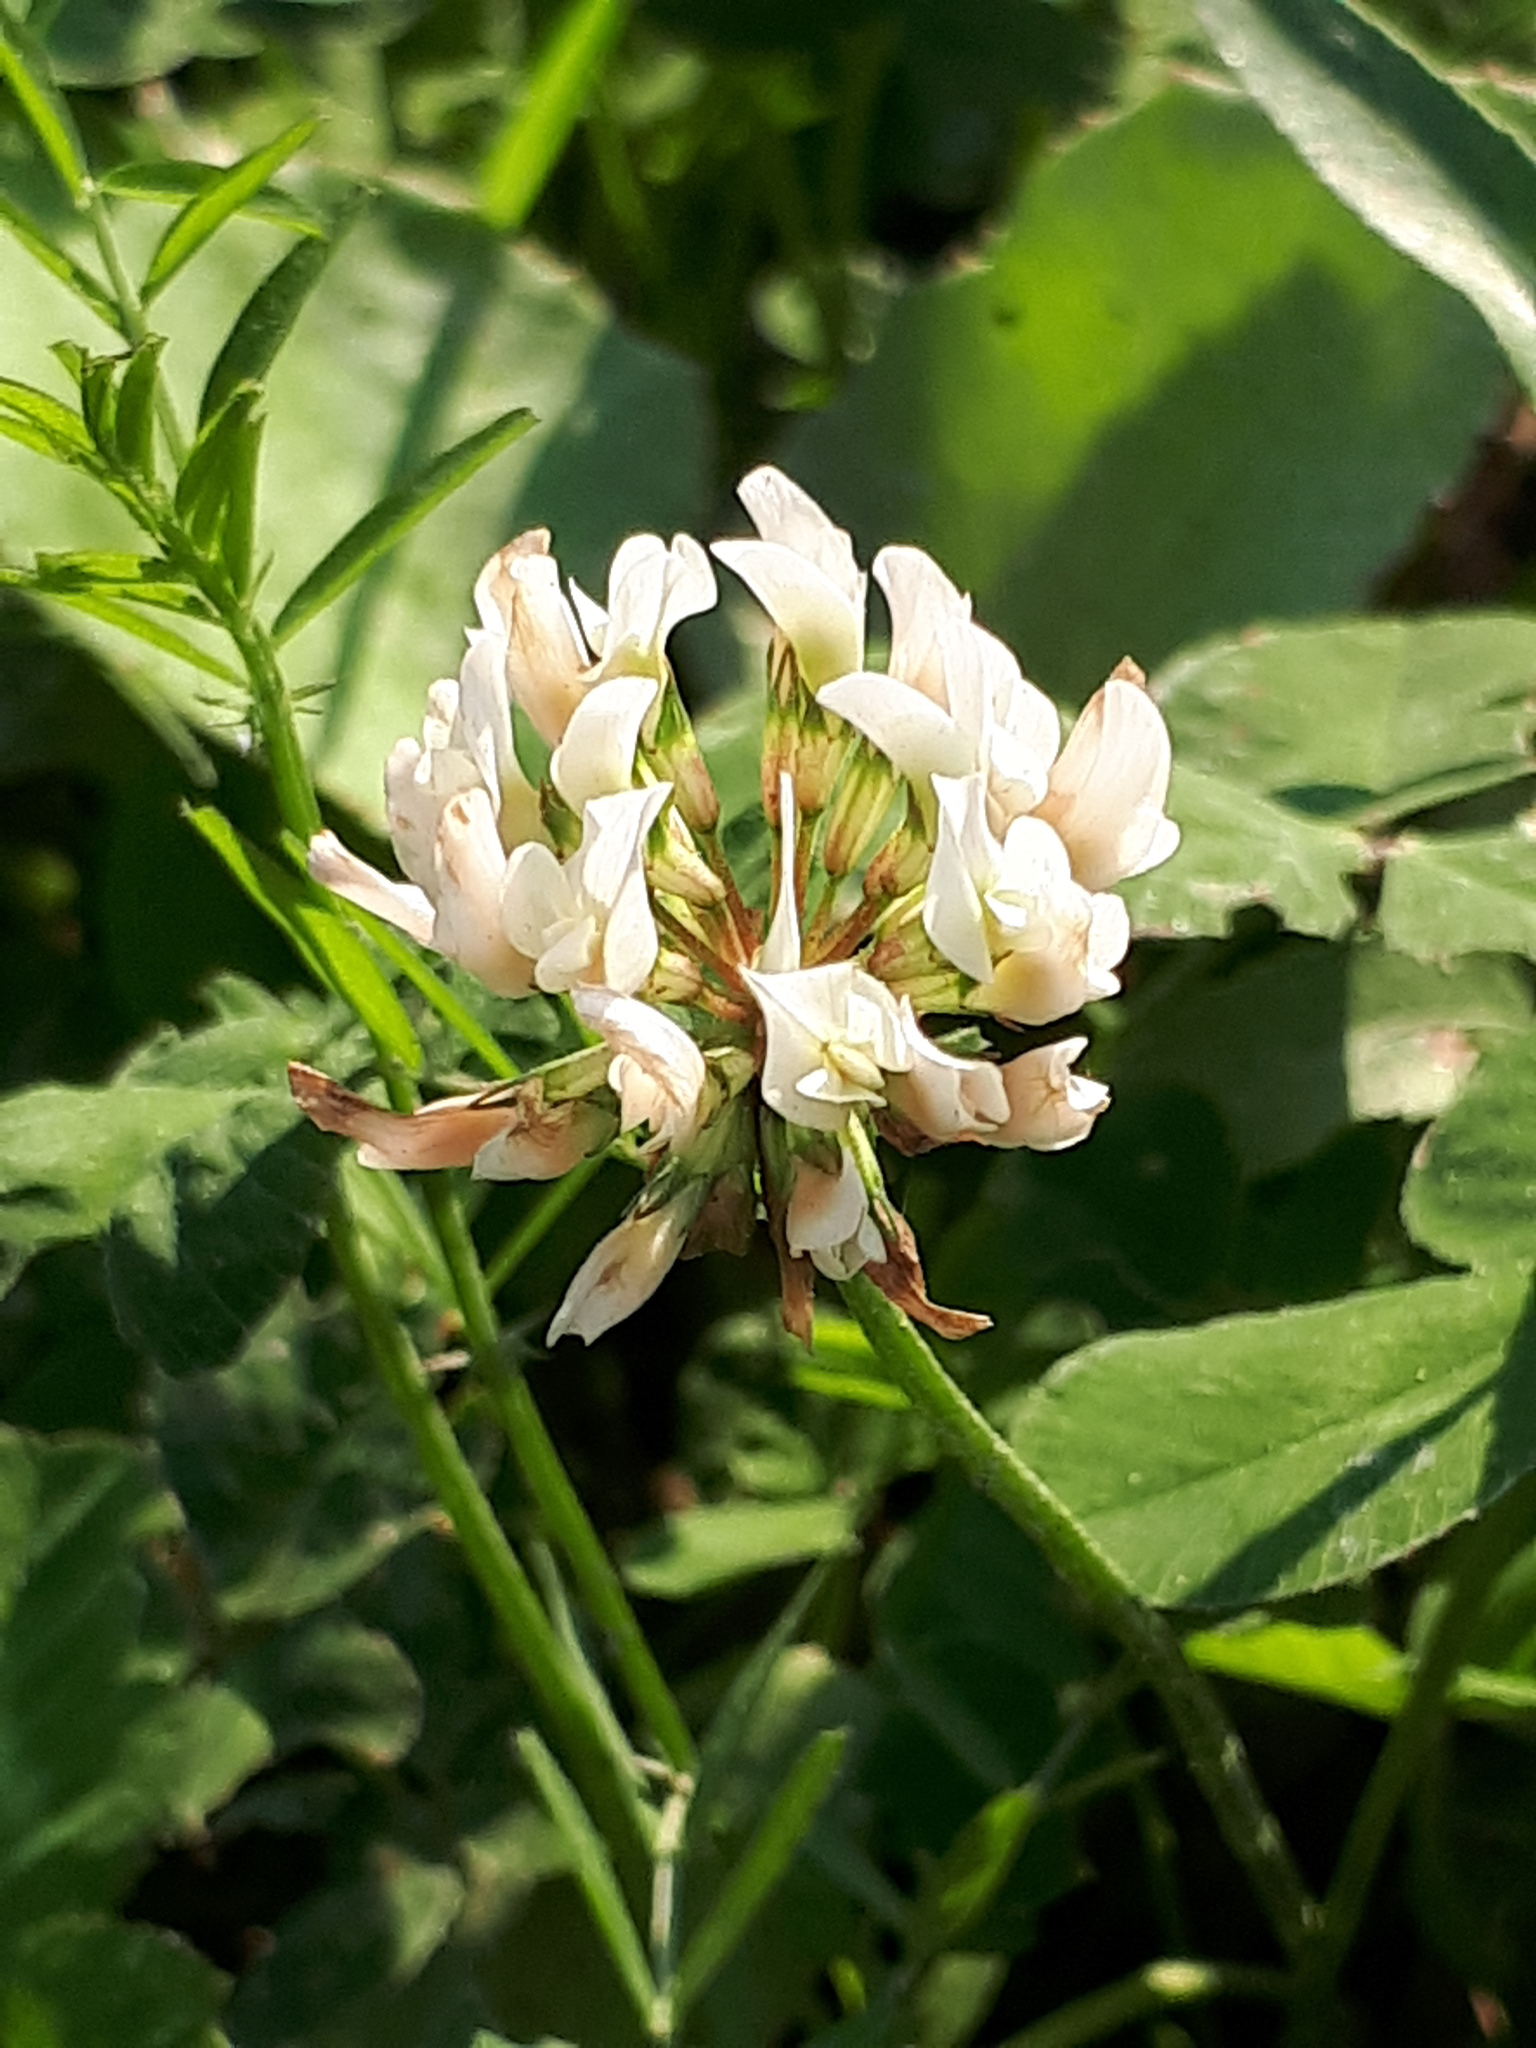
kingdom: Plantae
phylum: Tracheophyta
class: Magnoliopsida
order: Fabales
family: Fabaceae
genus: Trifolium
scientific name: Trifolium repens
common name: White clover
